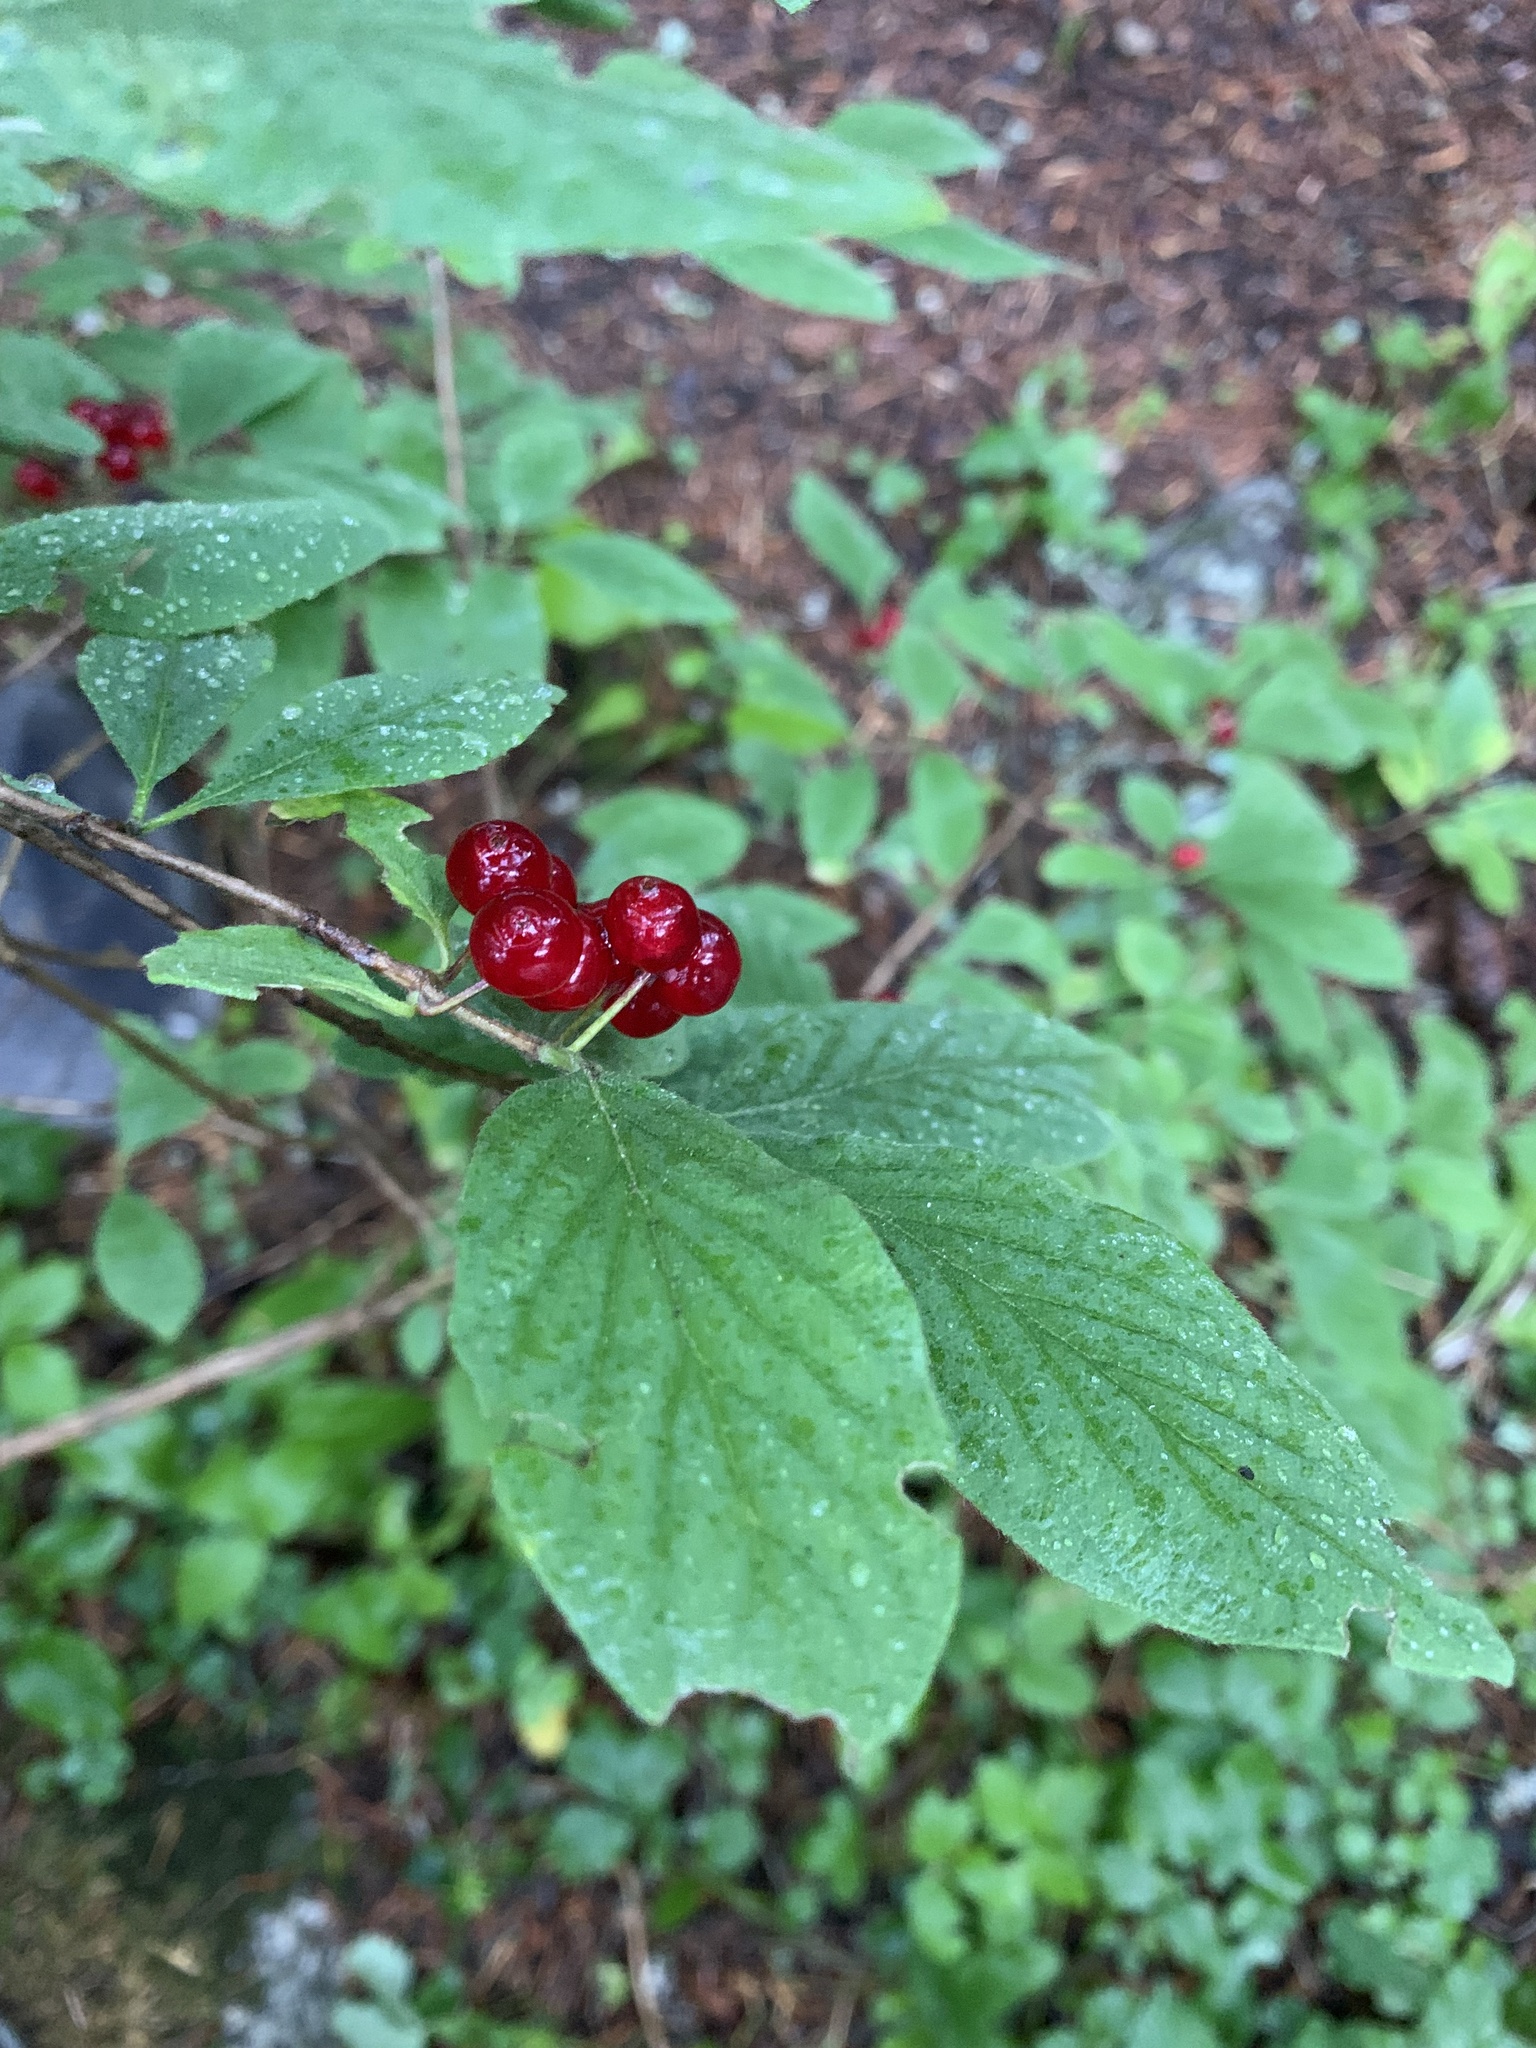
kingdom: Plantae
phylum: Tracheophyta
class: Magnoliopsida
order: Dipsacales
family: Caprifoliaceae
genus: Lonicera
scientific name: Lonicera xylosteum
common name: Fly honeysuckle
